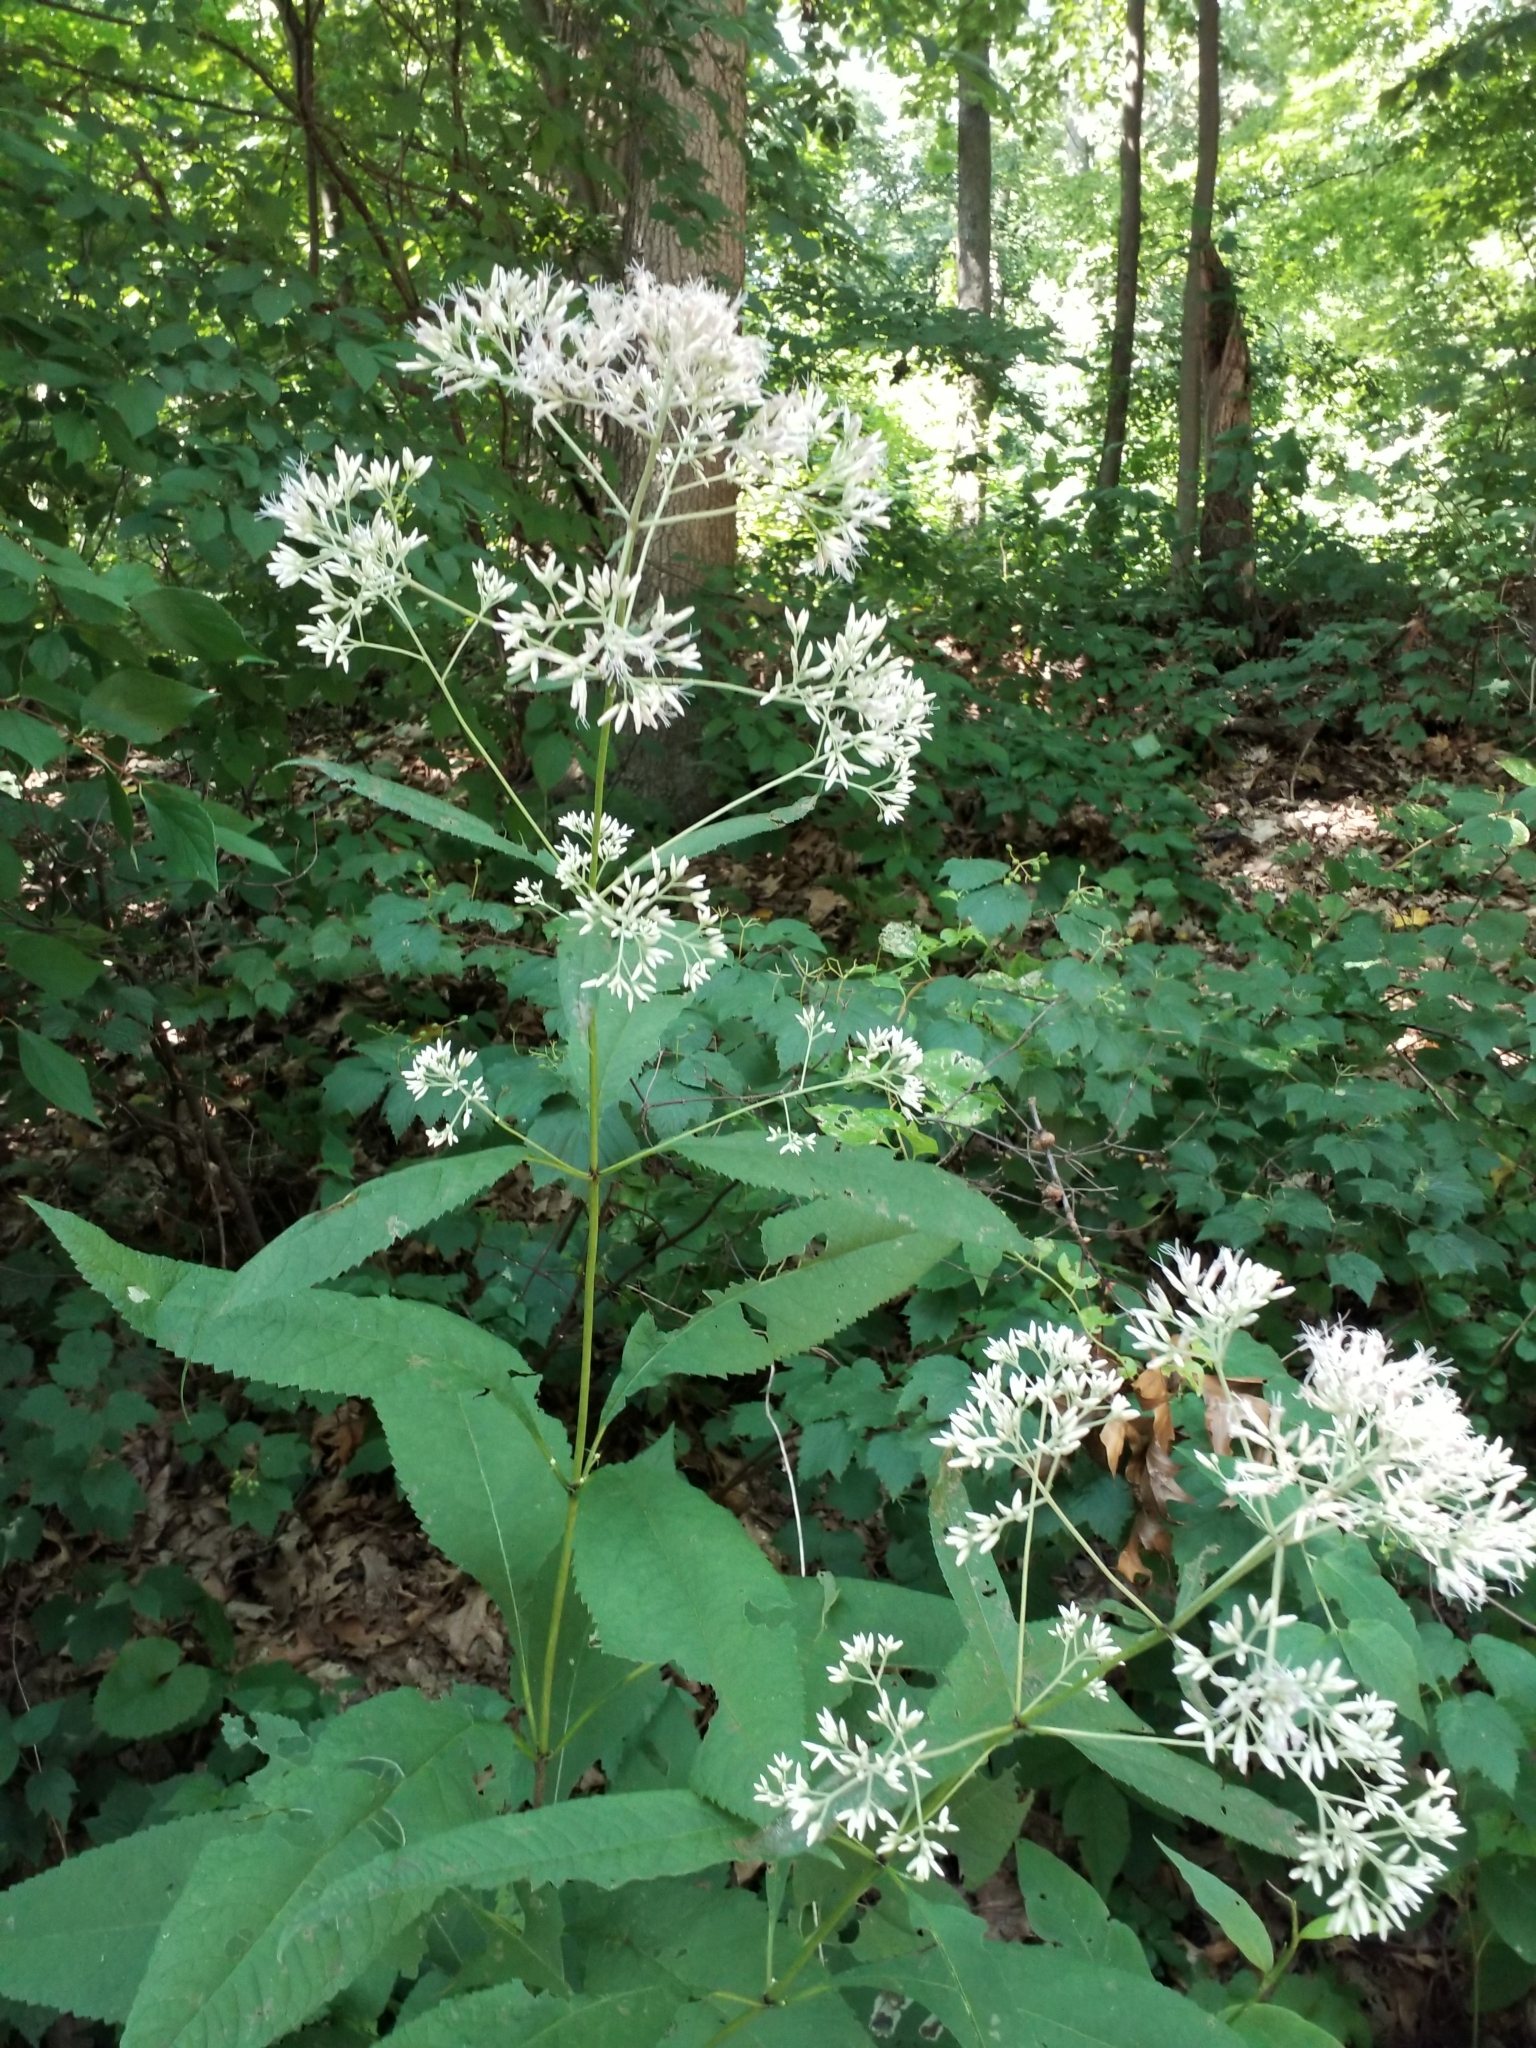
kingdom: Plantae
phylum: Tracheophyta
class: Magnoliopsida
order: Asterales
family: Asteraceae
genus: Eutrochium
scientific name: Eutrochium purpureum
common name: Gravelroot
